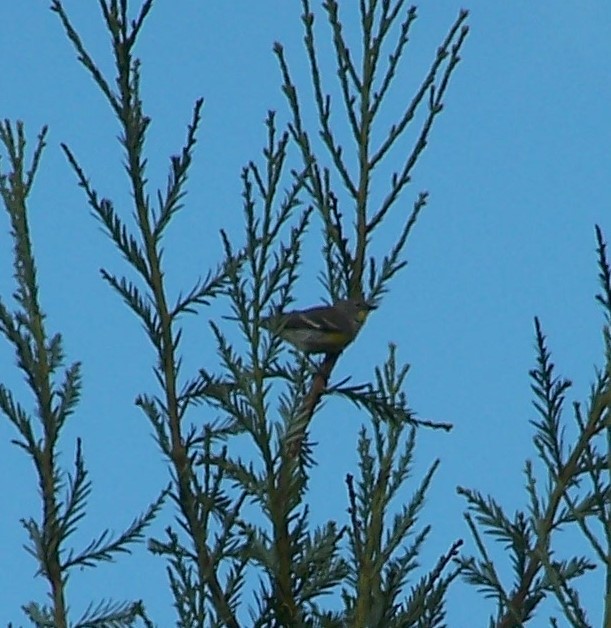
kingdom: Animalia
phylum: Chordata
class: Aves
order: Passeriformes
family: Parulidae
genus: Setophaga
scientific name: Setophaga auduboni
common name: Audubon's warbler
